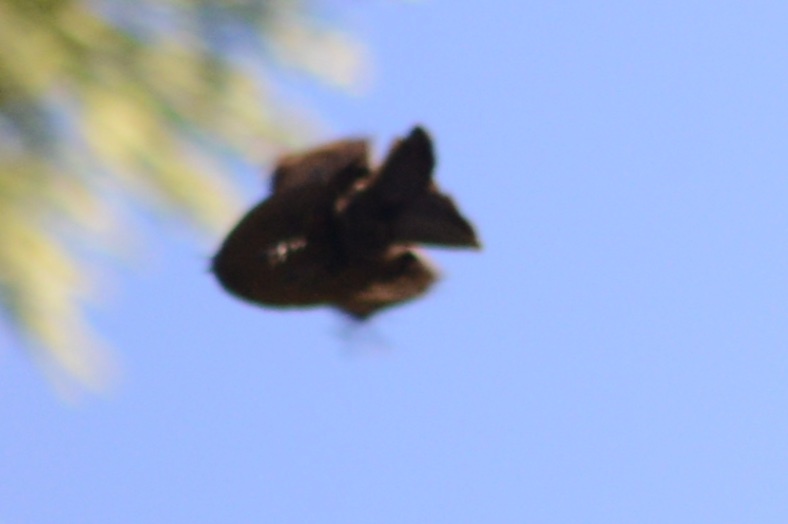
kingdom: Animalia
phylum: Chordata
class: Aves
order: Passeriformes
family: Rhipiduridae
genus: Rhipidura
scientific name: Rhipidura fuliginosa
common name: New zealand fantail
